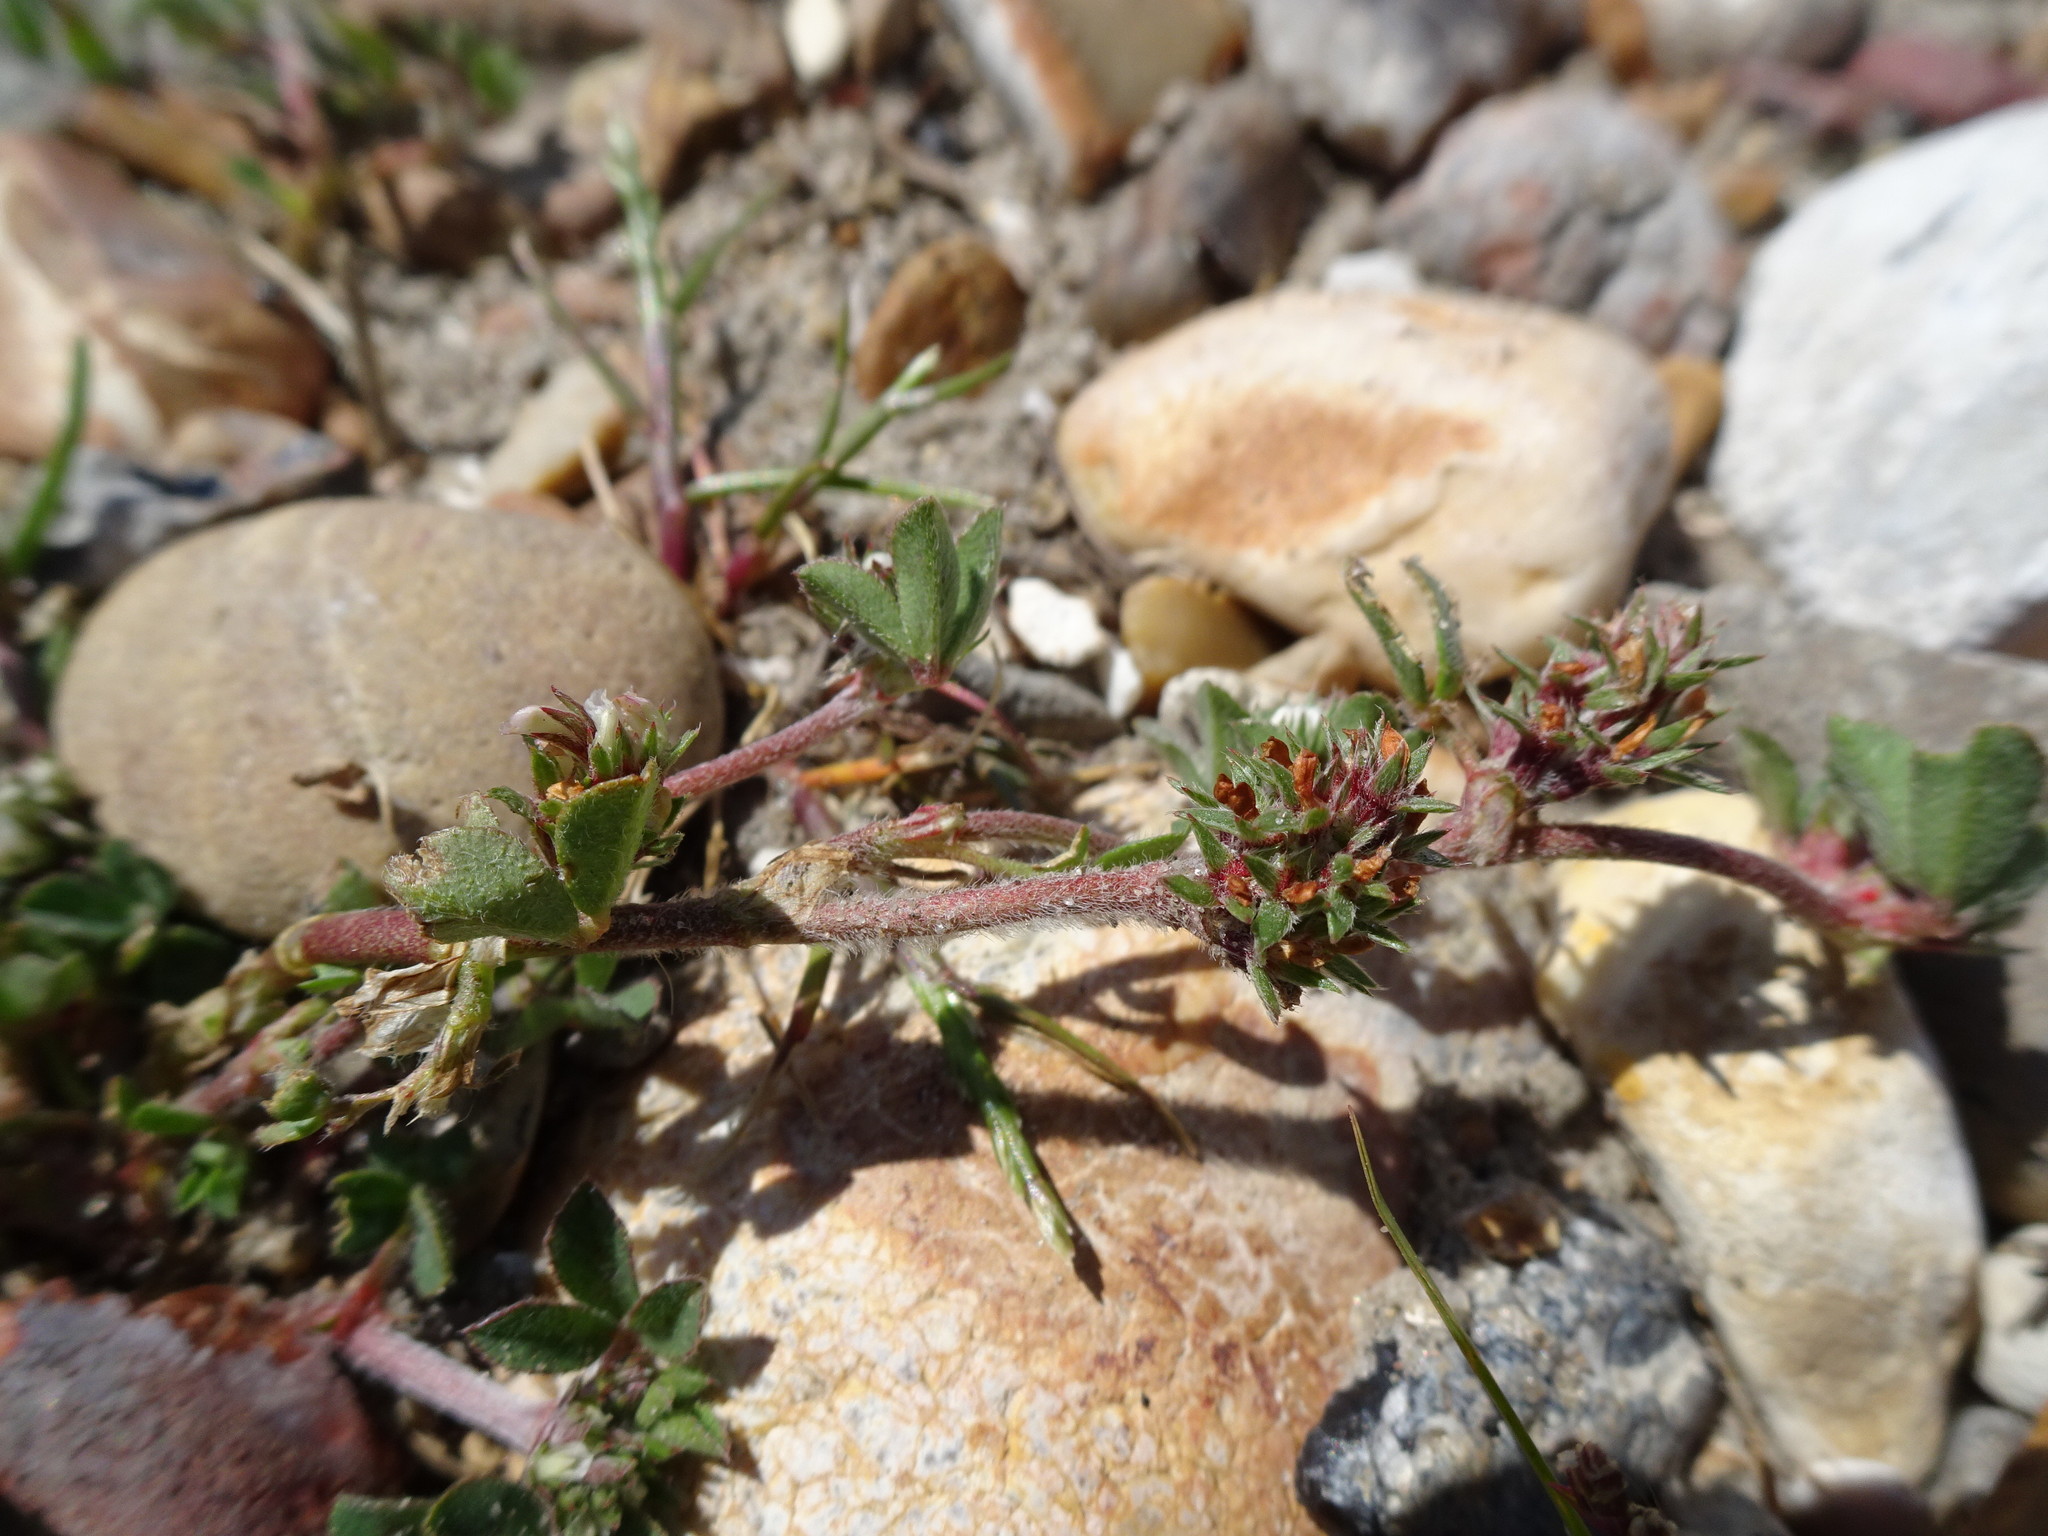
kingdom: Plantae
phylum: Tracheophyta
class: Magnoliopsida
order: Fabales
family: Fabaceae
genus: Trifolium
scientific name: Trifolium scabrum
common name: Rough clover
